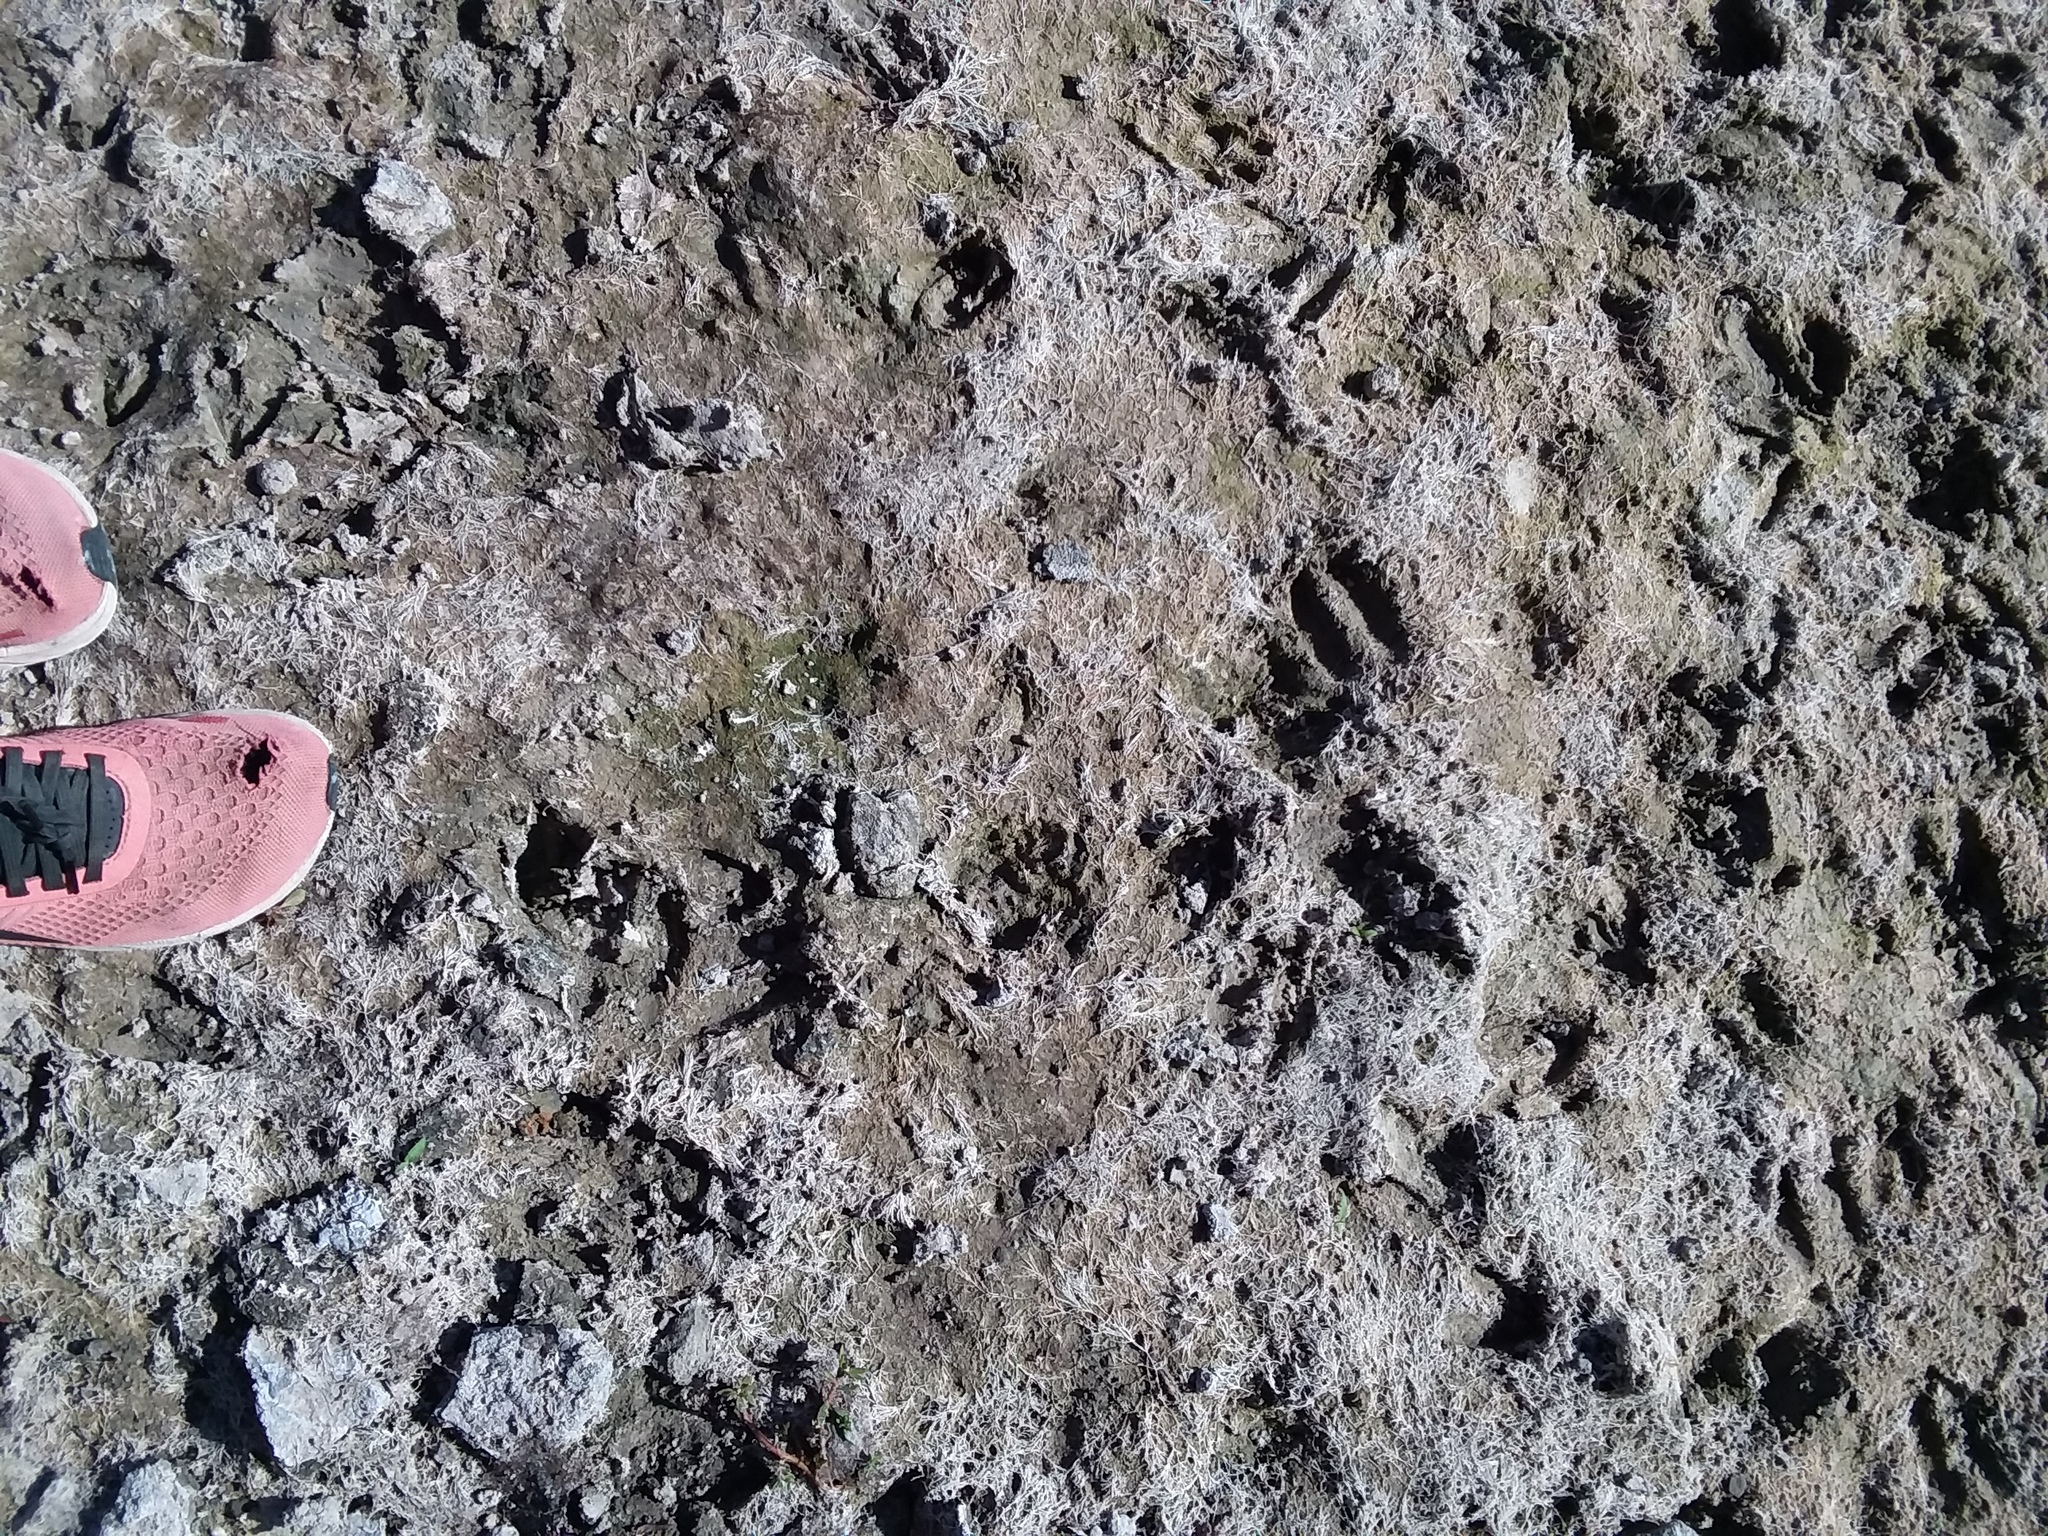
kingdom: Animalia
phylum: Chordata
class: Mammalia
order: Artiodactyla
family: Cervidae
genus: Odocoileus
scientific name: Odocoileus virginianus
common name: White-tailed deer
